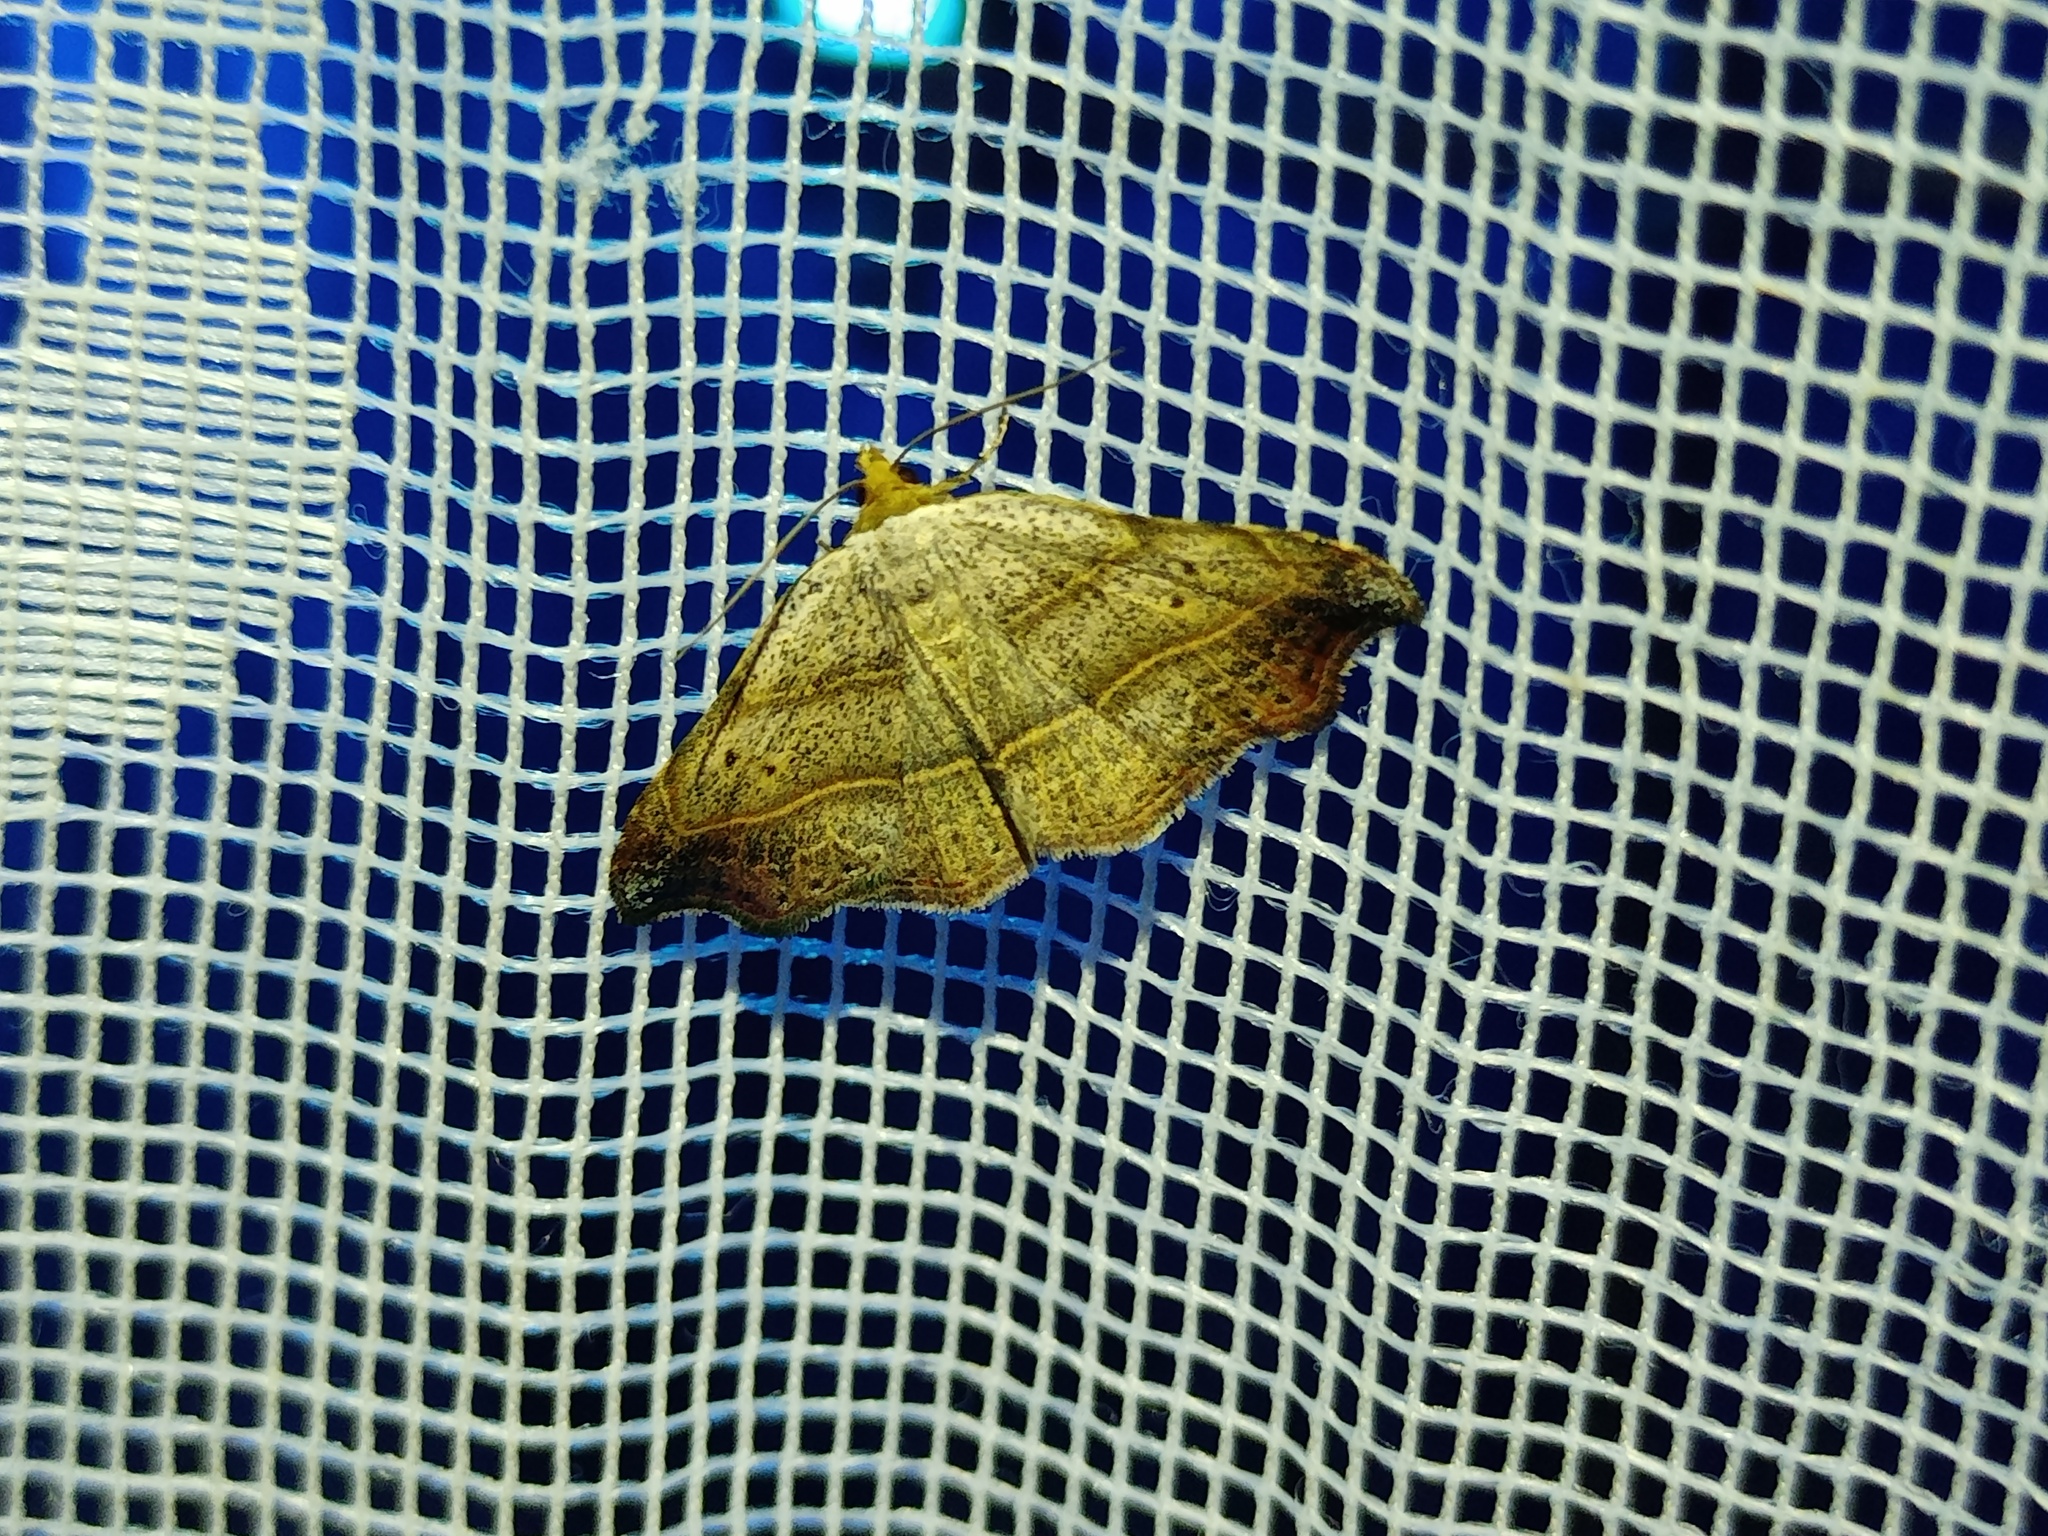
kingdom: Animalia
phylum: Arthropoda
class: Insecta
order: Lepidoptera
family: Erebidae
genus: Laspeyria
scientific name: Laspeyria flexula
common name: Beautiful hook-tip
